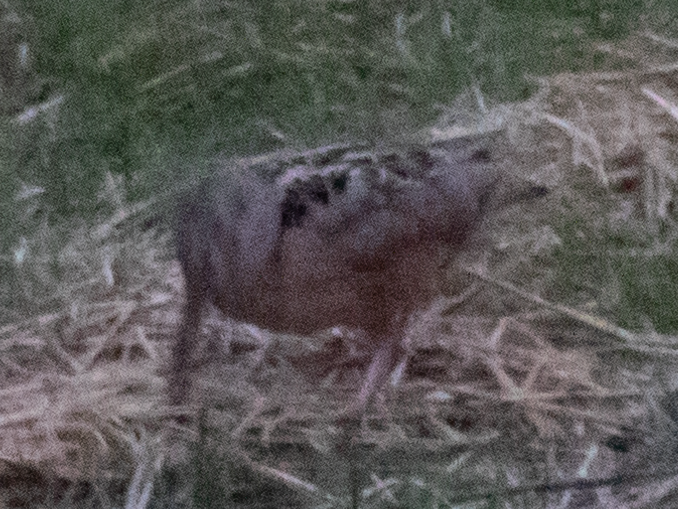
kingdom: Animalia
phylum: Chordata
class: Aves
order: Charadriiformes
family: Scolopacidae
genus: Scolopax
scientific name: Scolopax minor
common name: American woodcock
